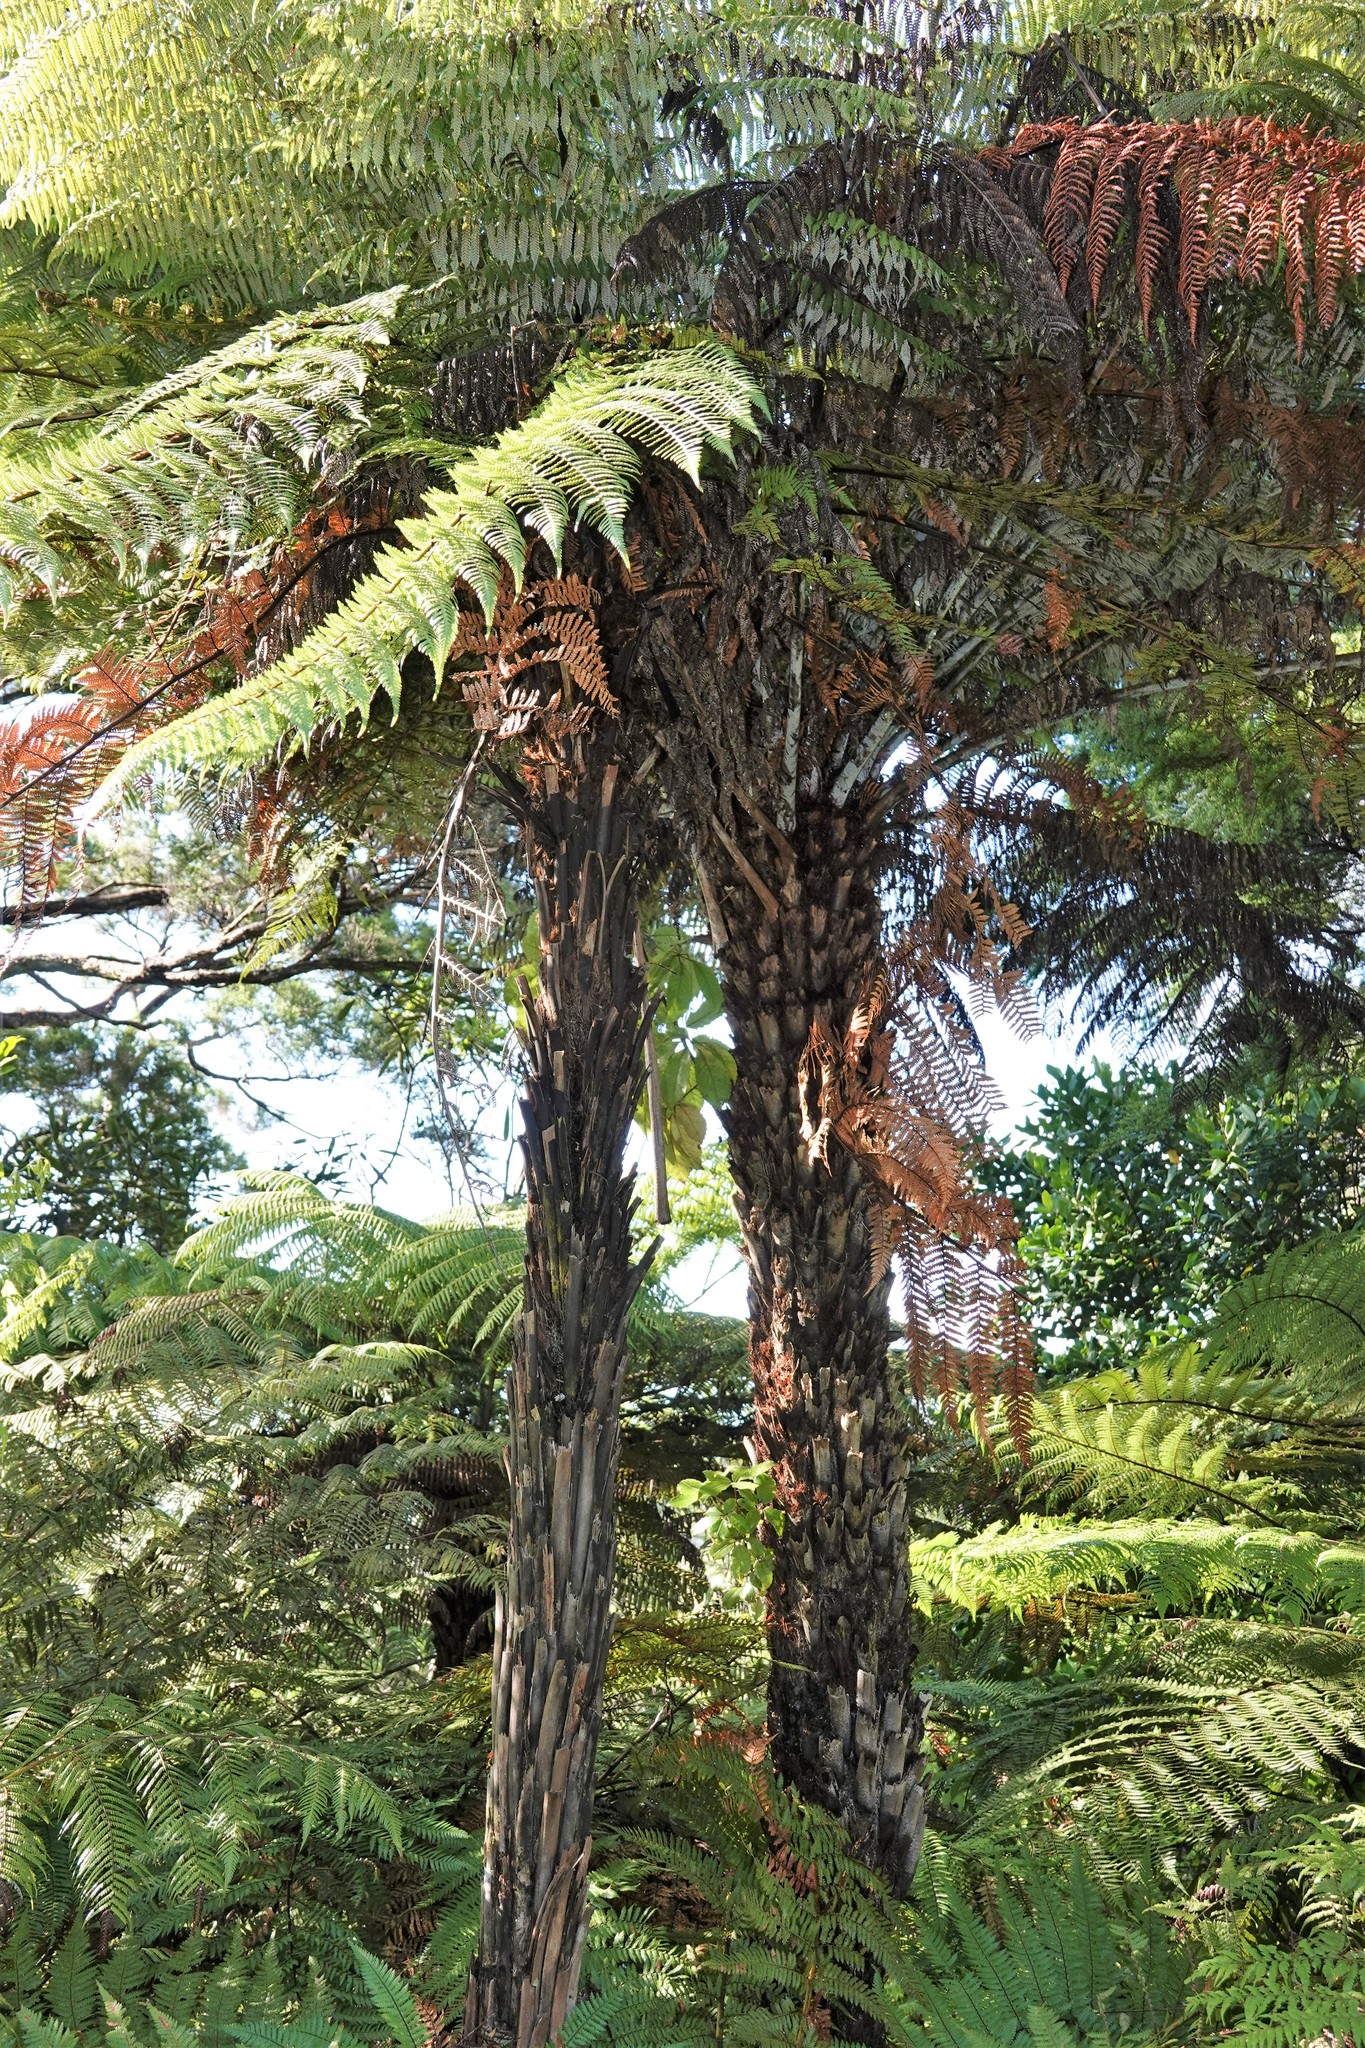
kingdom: Plantae
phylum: Tracheophyta
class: Polypodiopsida
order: Cyatheales
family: Cyatheaceae
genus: Alsophila
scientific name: Alsophila dealbata
